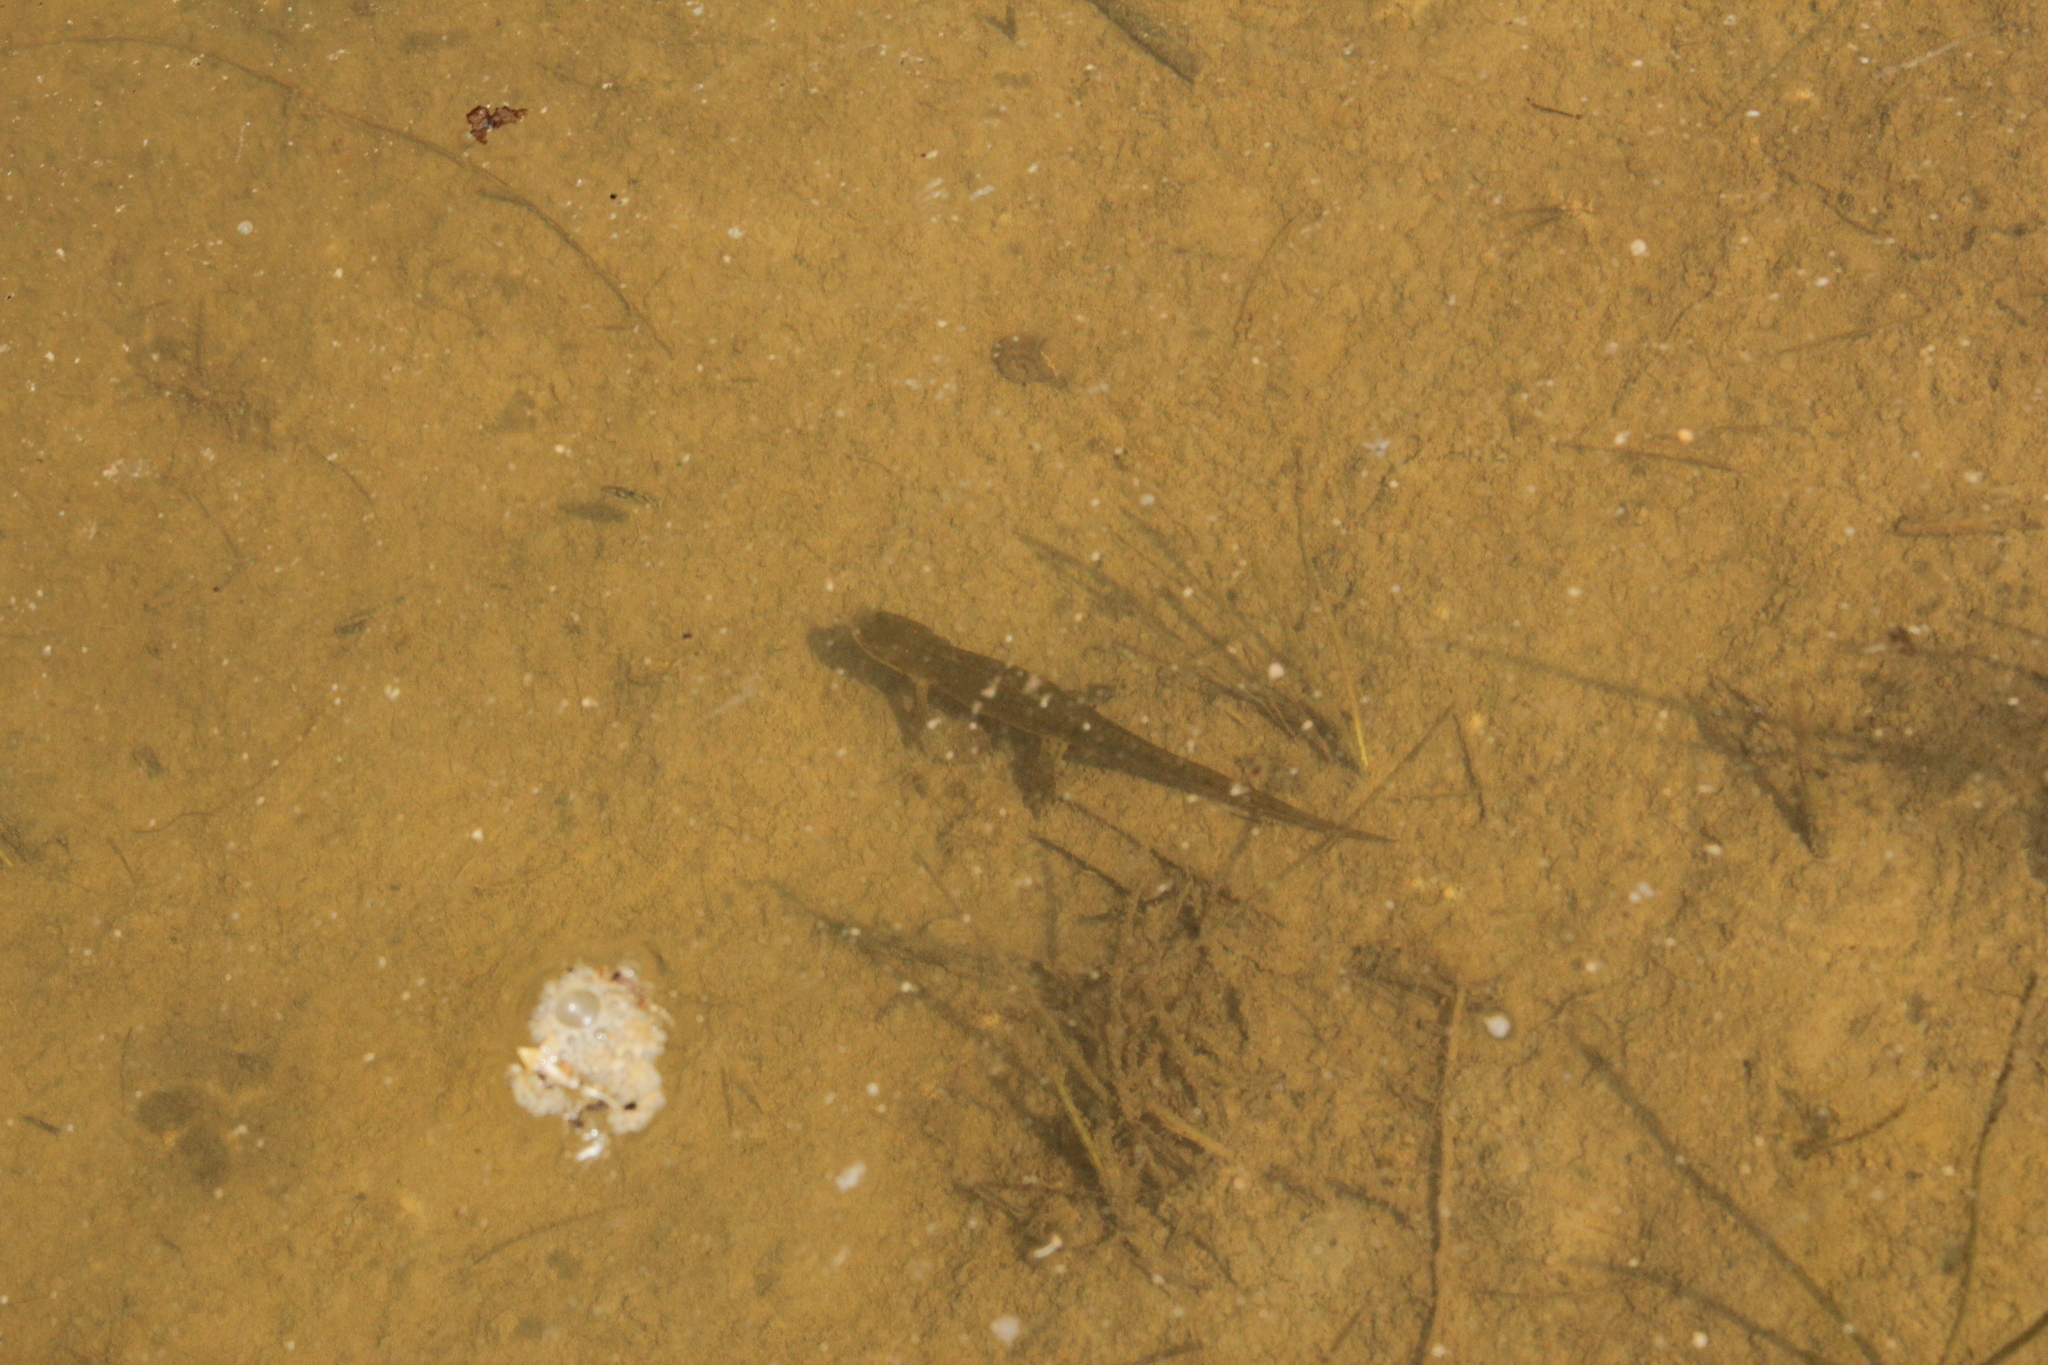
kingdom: Animalia
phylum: Chordata
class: Amphibia
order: Caudata
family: Salamandridae
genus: Notophthalmus
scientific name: Notophthalmus viridescens
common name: Eastern newt
